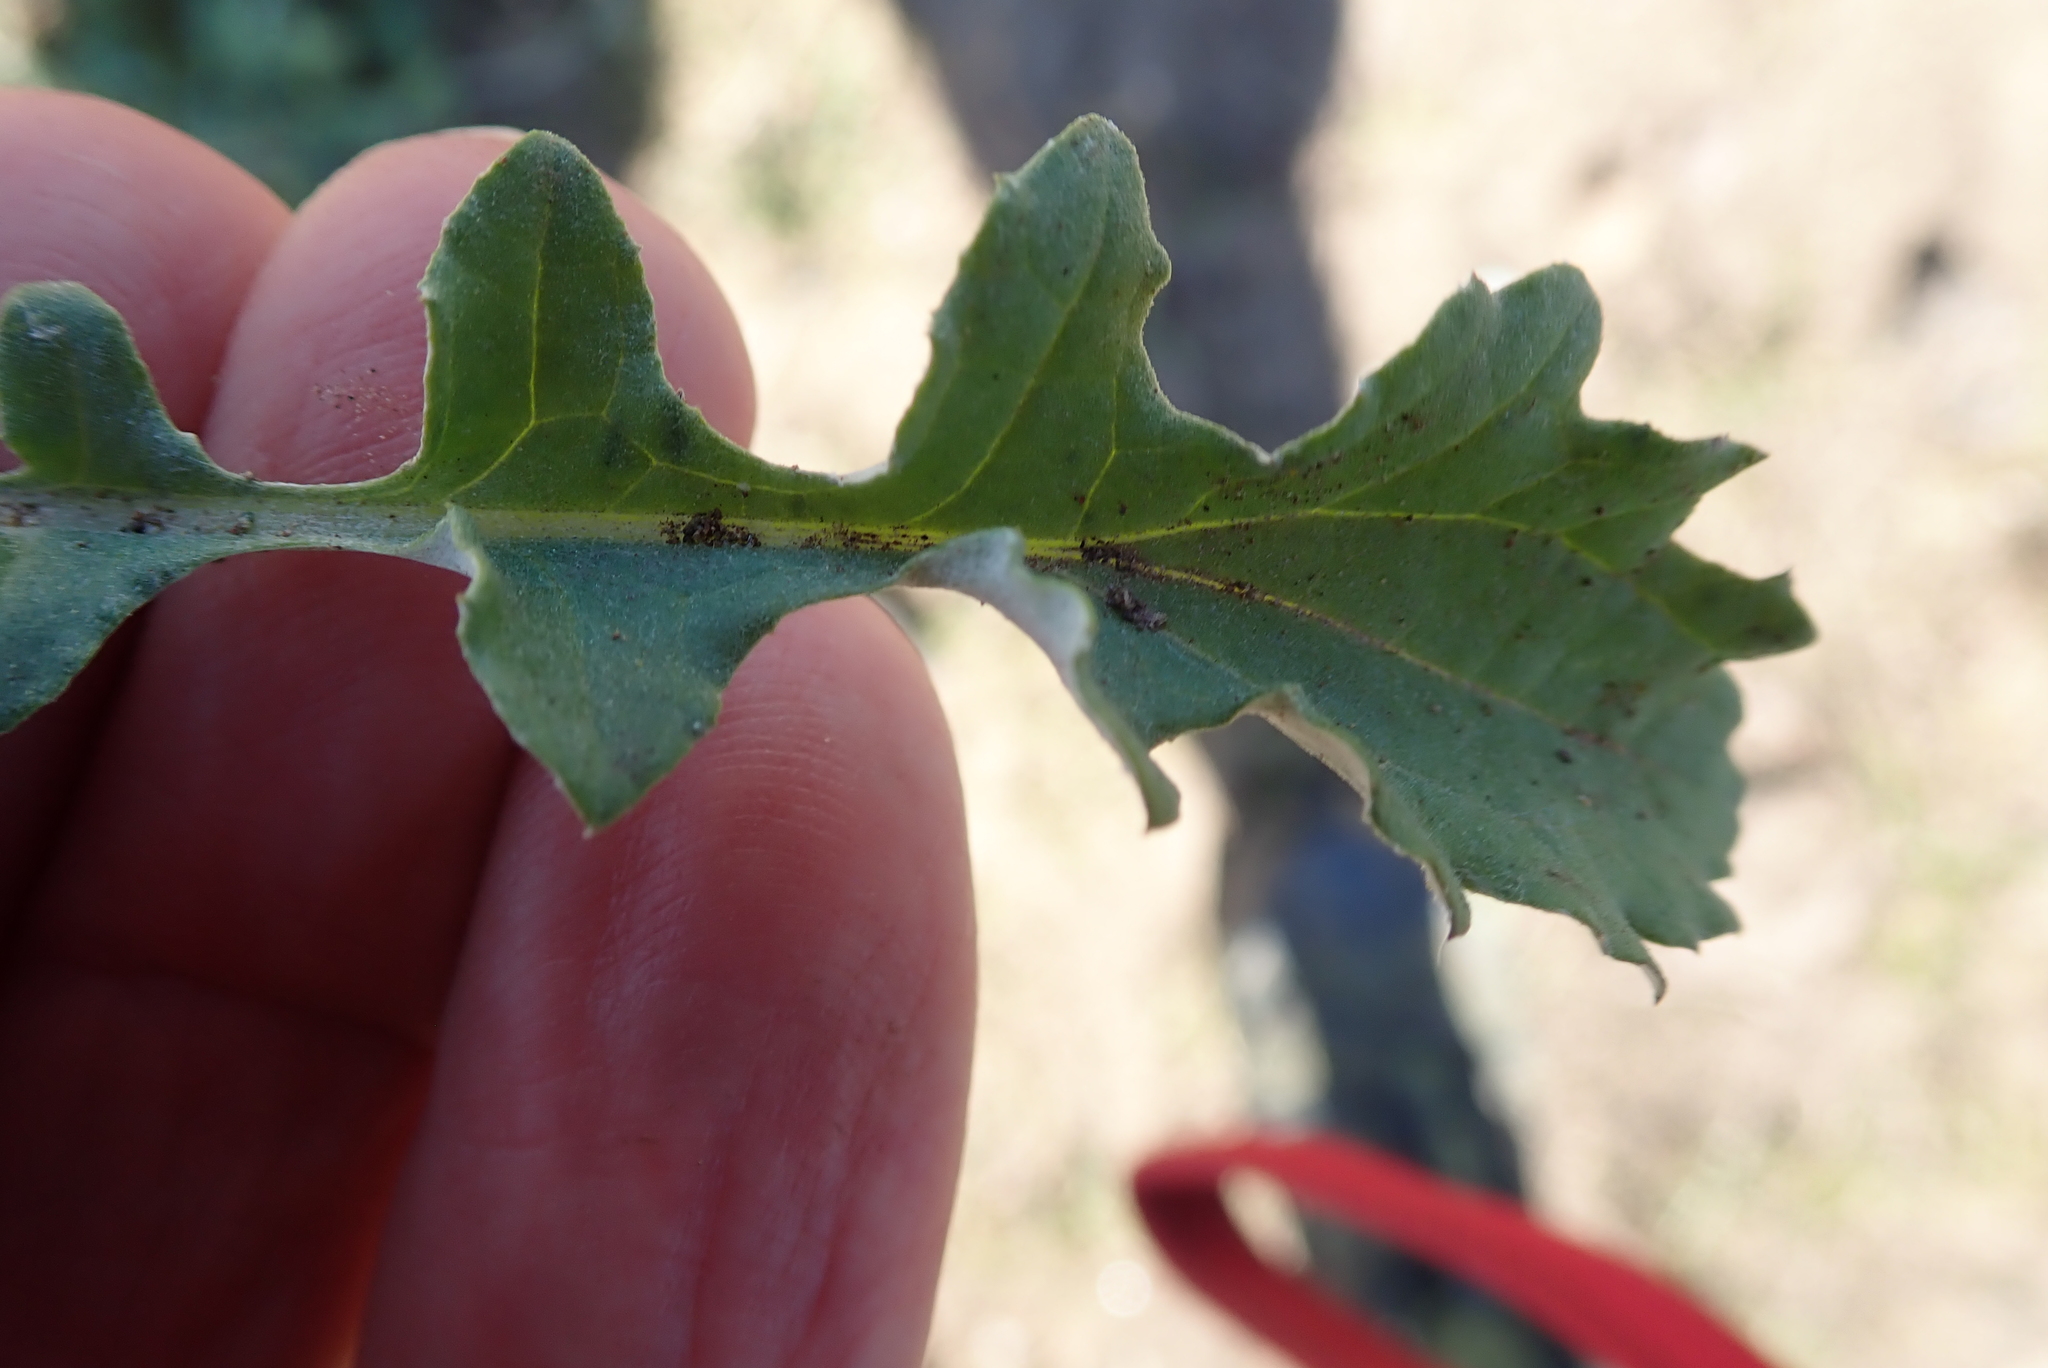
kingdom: Plantae
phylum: Tracheophyta
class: Magnoliopsida
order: Asterales
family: Asteraceae
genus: Arctotis
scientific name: Arctotis arctotoides
